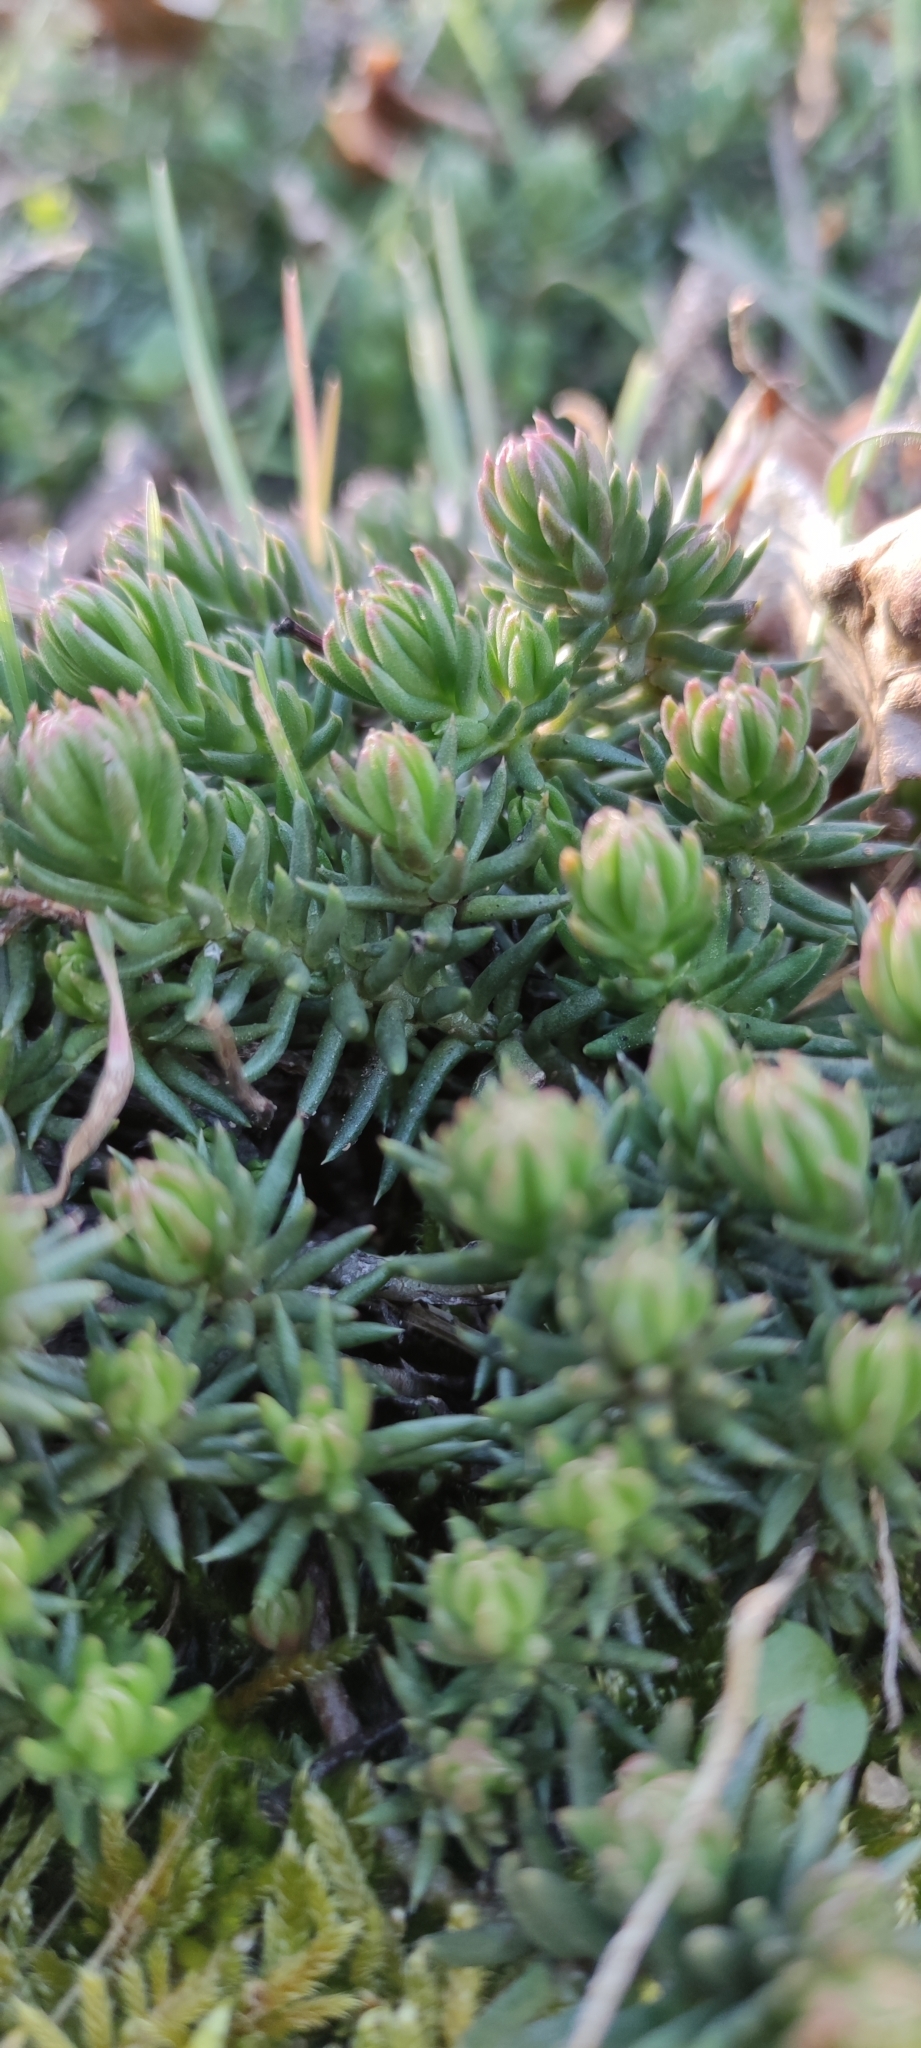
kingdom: Plantae
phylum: Tracheophyta
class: Magnoliopsida
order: Saxifragales
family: Crassulaceae
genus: Petrosedum
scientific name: Petrosedum rupestre
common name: Jenny's stonecrop
